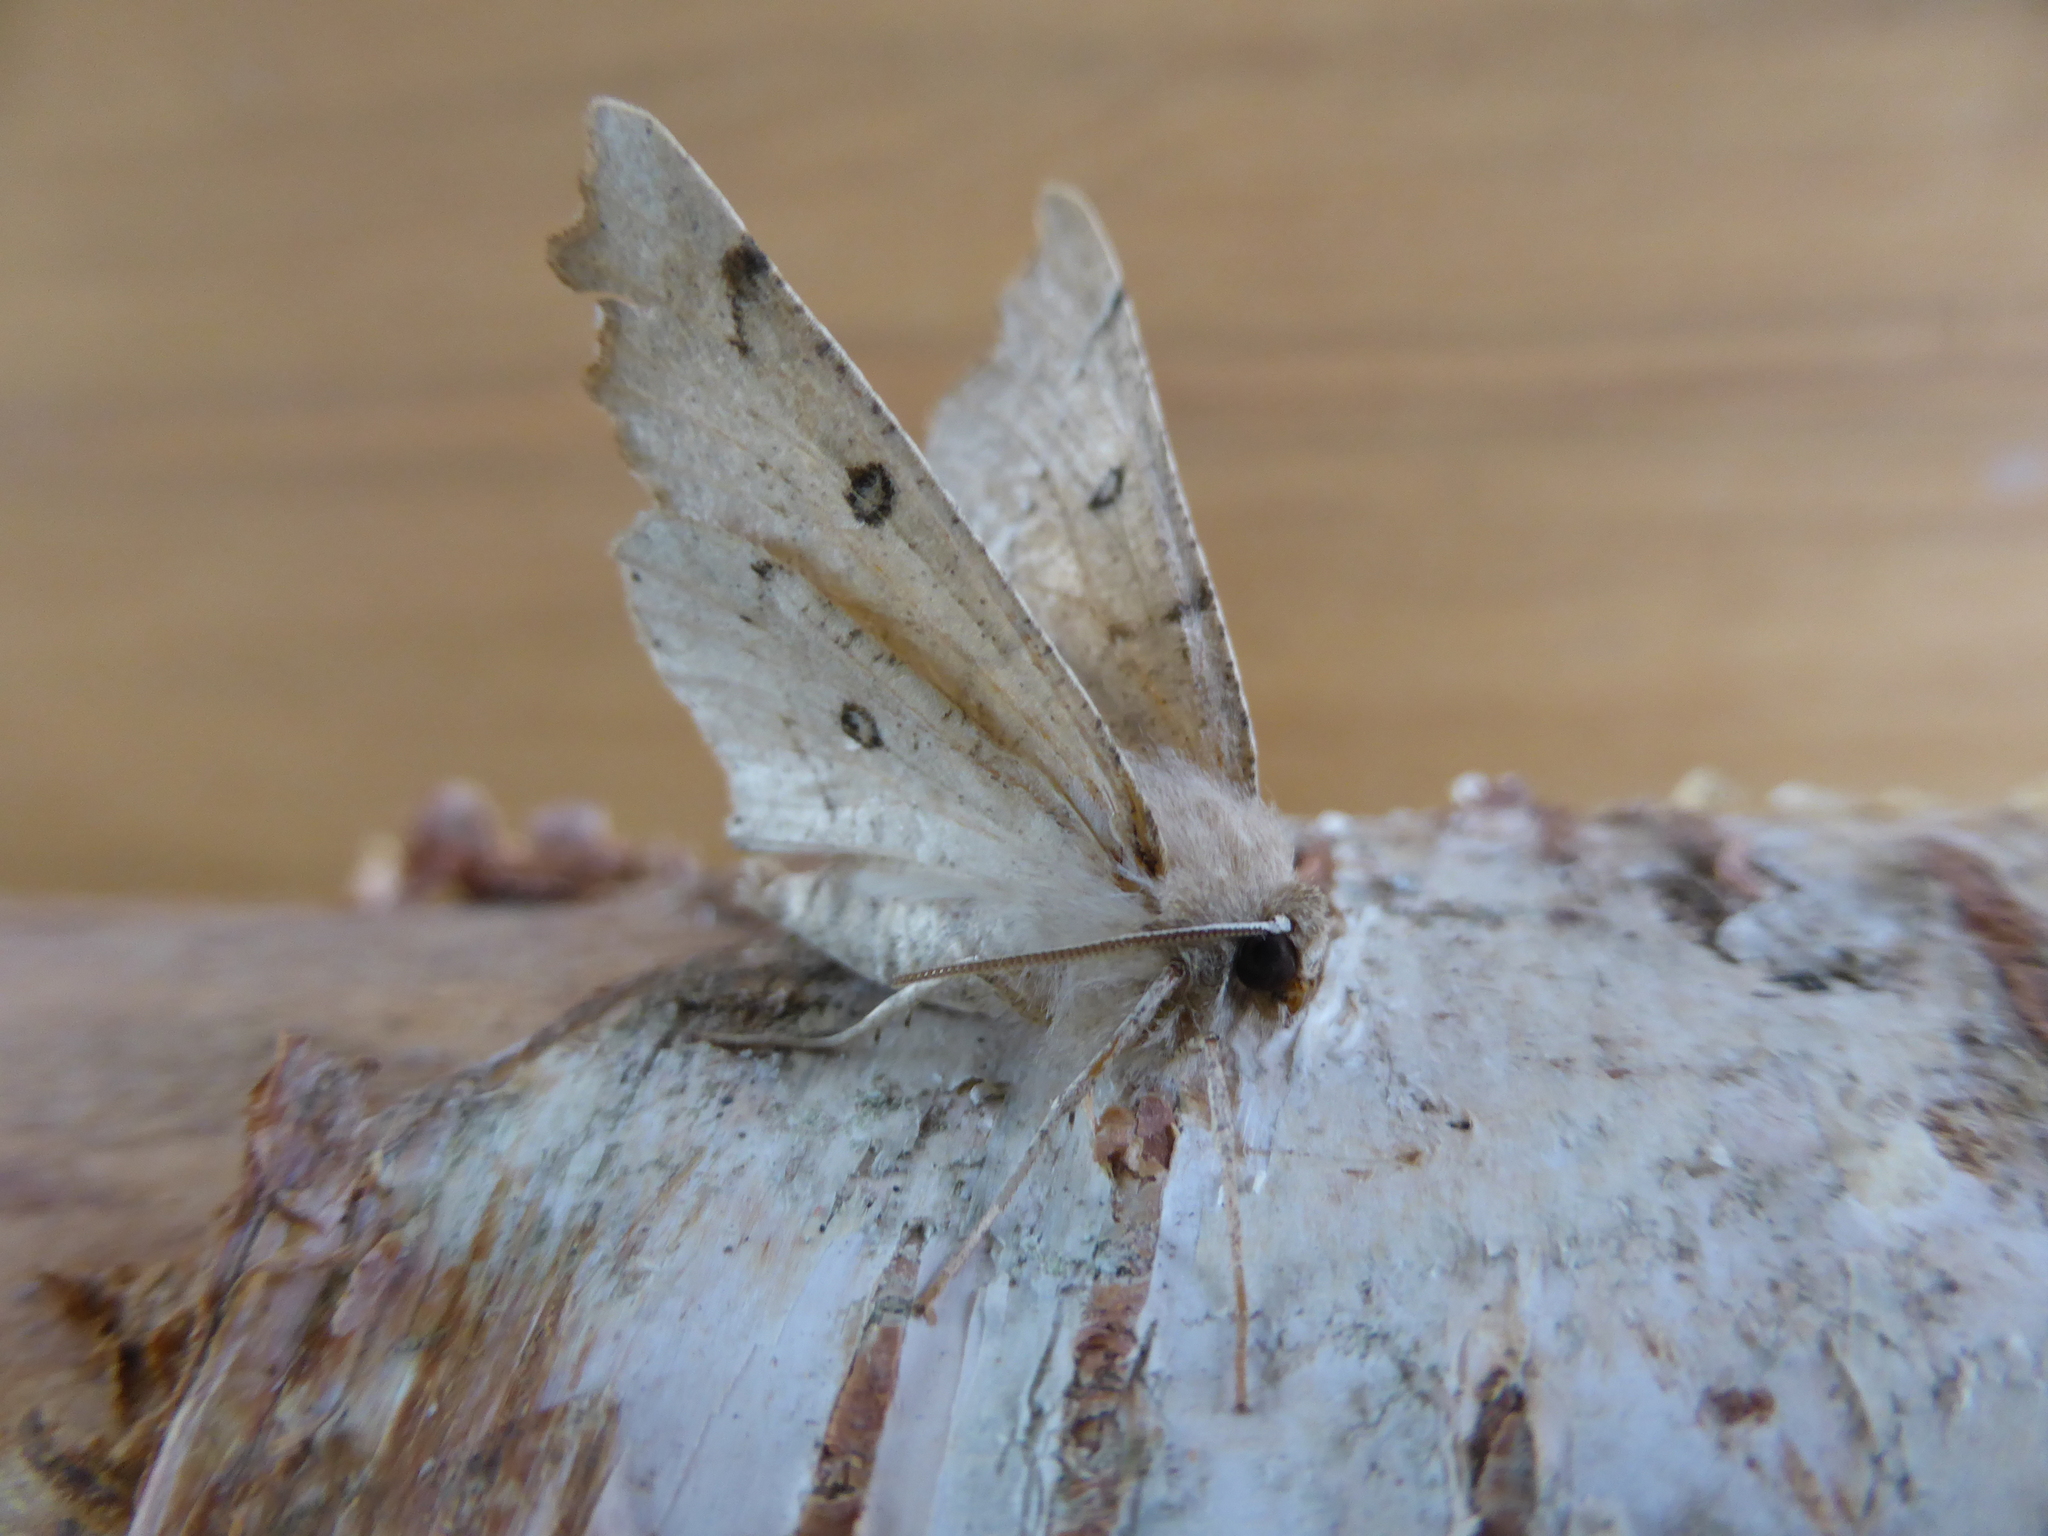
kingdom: Animalia
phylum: Arthropoda
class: Insecta
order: Lepidoptera
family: Geometridae
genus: Odontopera
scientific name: Odontopera bidentata
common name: Scalloped hazel
